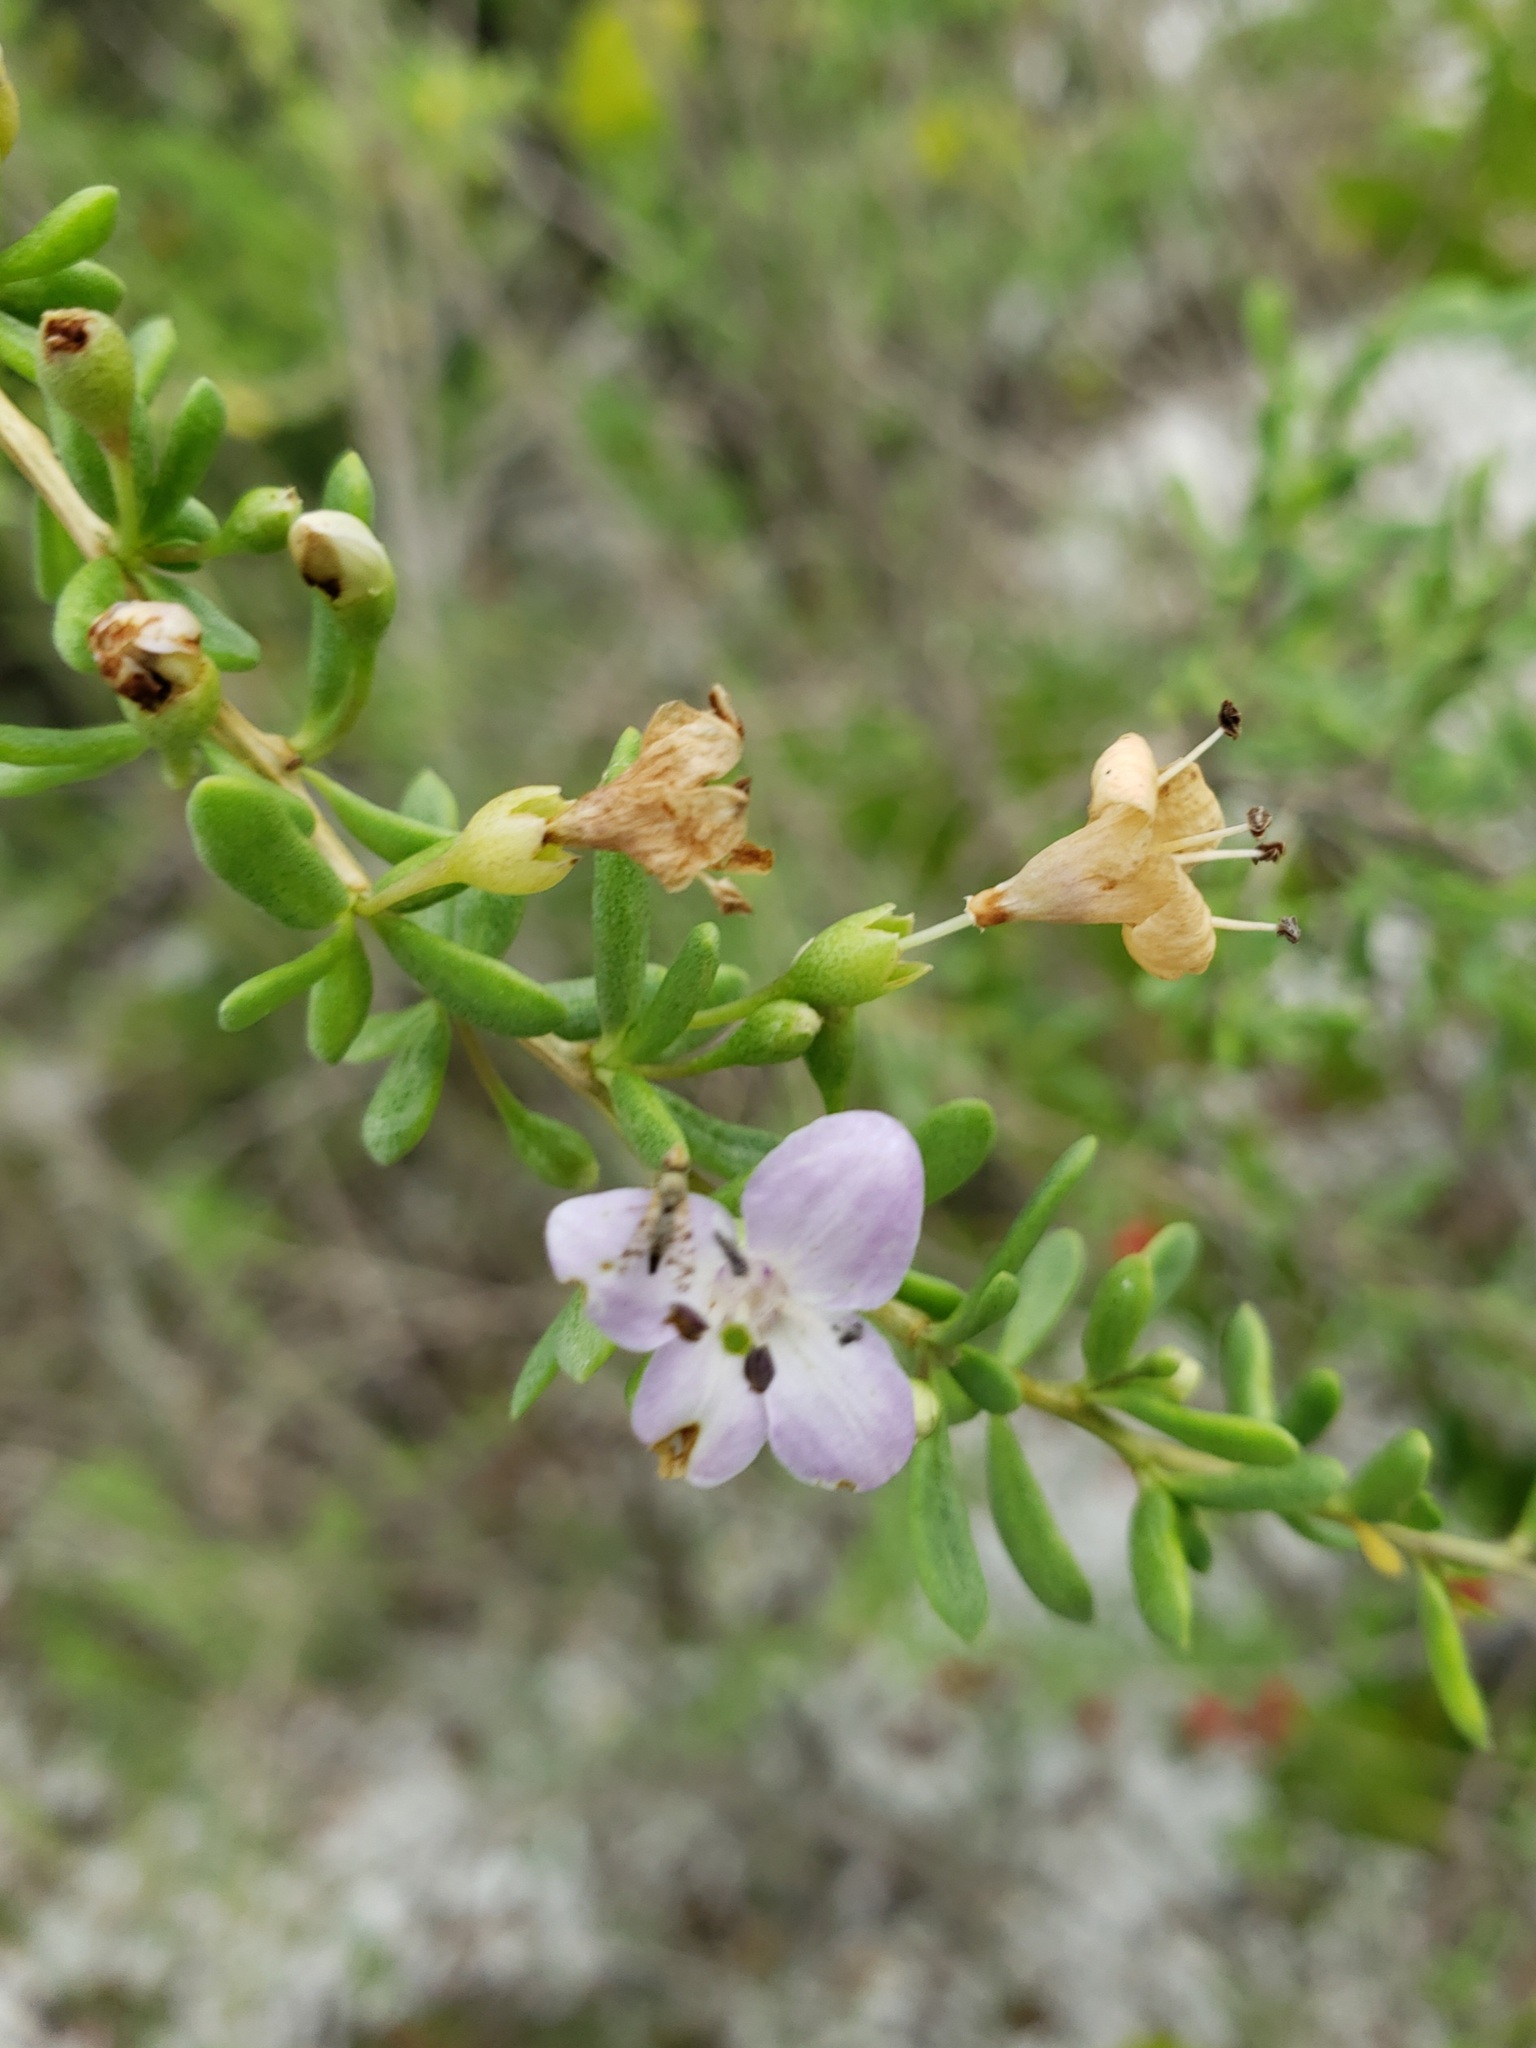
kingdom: Plantae
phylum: Tracheophyta
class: Magnoliopsida
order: Solanales
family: Solanaceae
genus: Lycium
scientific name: Lycium carolinianum
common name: Christmasberry
